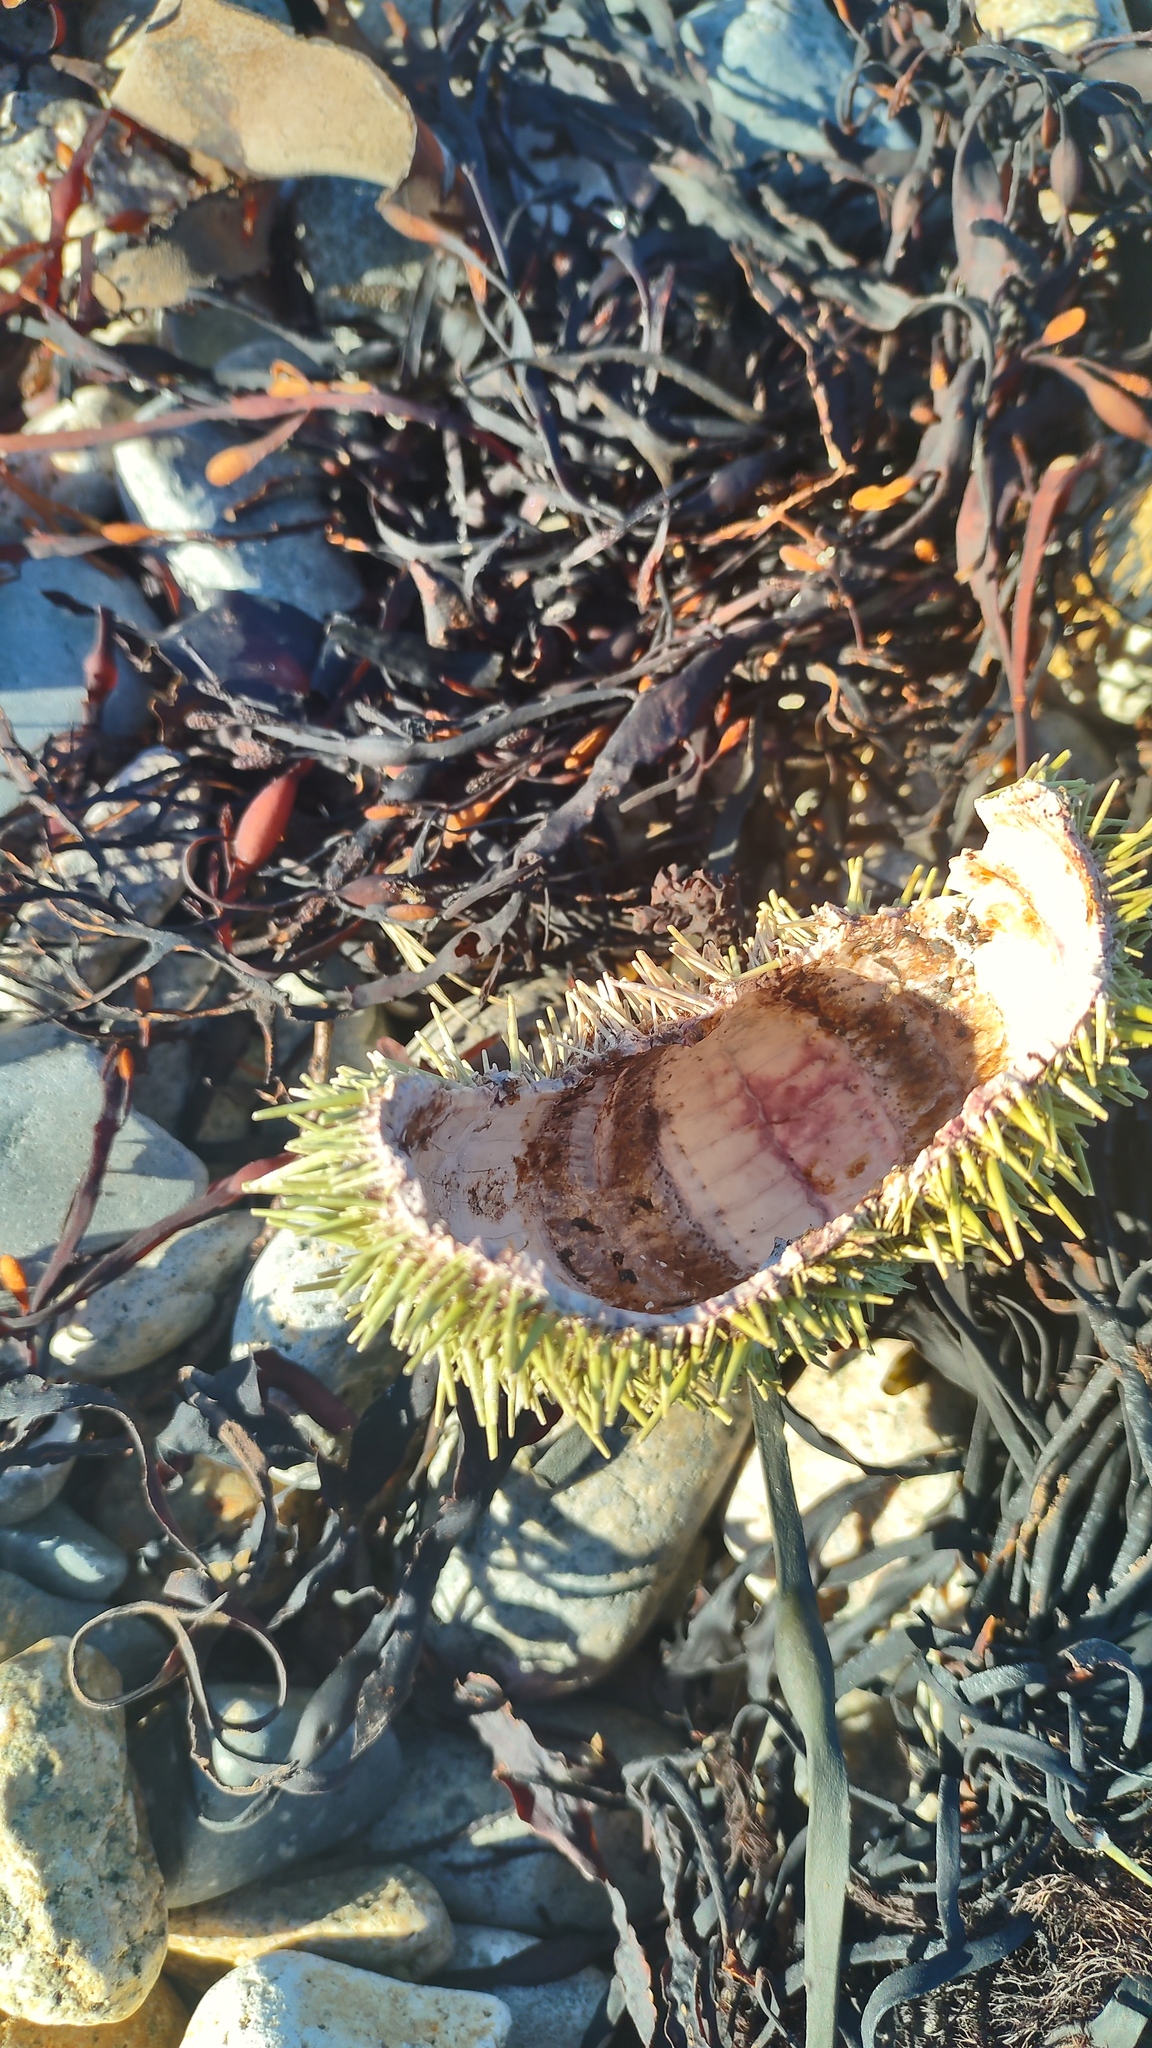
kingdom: Animalia
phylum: Echinodermata
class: Echinoidea
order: Camarodonta
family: Strongylocentrotidae
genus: Strongylocentrotus
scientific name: Strongylocentrotus droebachiensis
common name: Northern sea urchin
